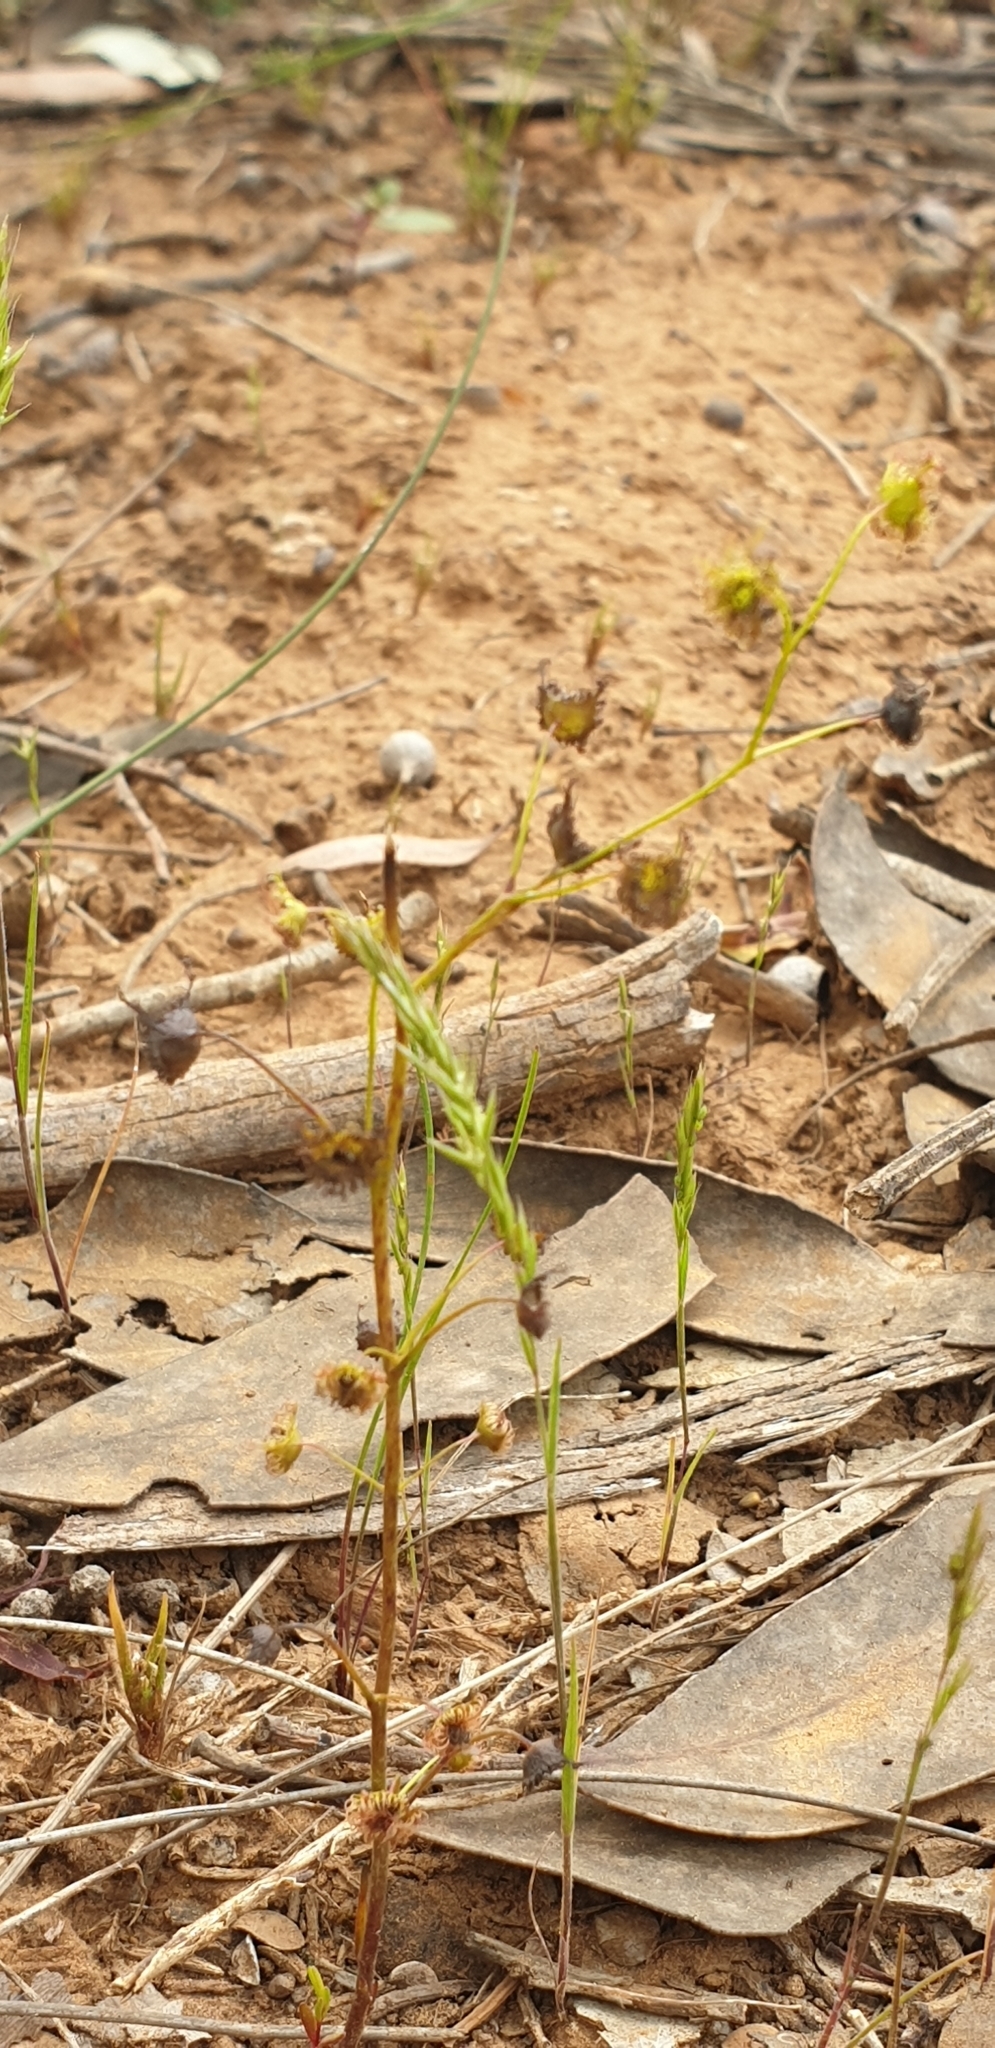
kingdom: Plantae
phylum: Tracheophyta
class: Magnoliopsida
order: Caryophyllales
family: Droseraceae
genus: Drosera
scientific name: Drosera peltata
